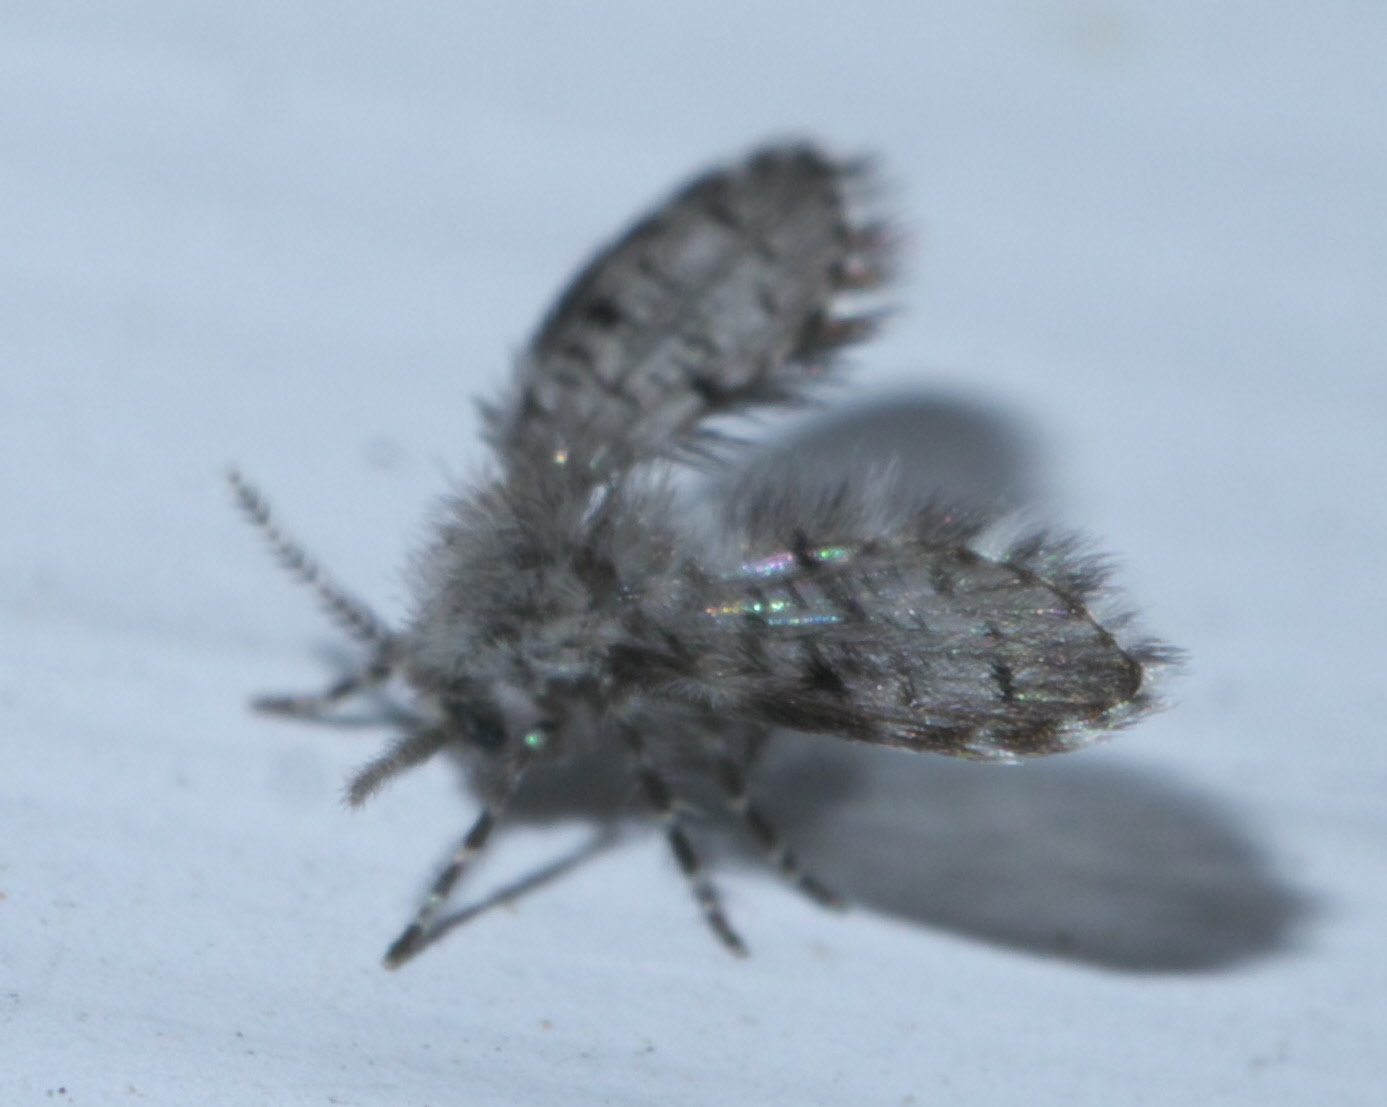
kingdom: Animalia
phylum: Arthropoda
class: Insecta
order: Diptera
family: Psychodidae
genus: Telmatoscopus
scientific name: Telmatoscopus furcatus
